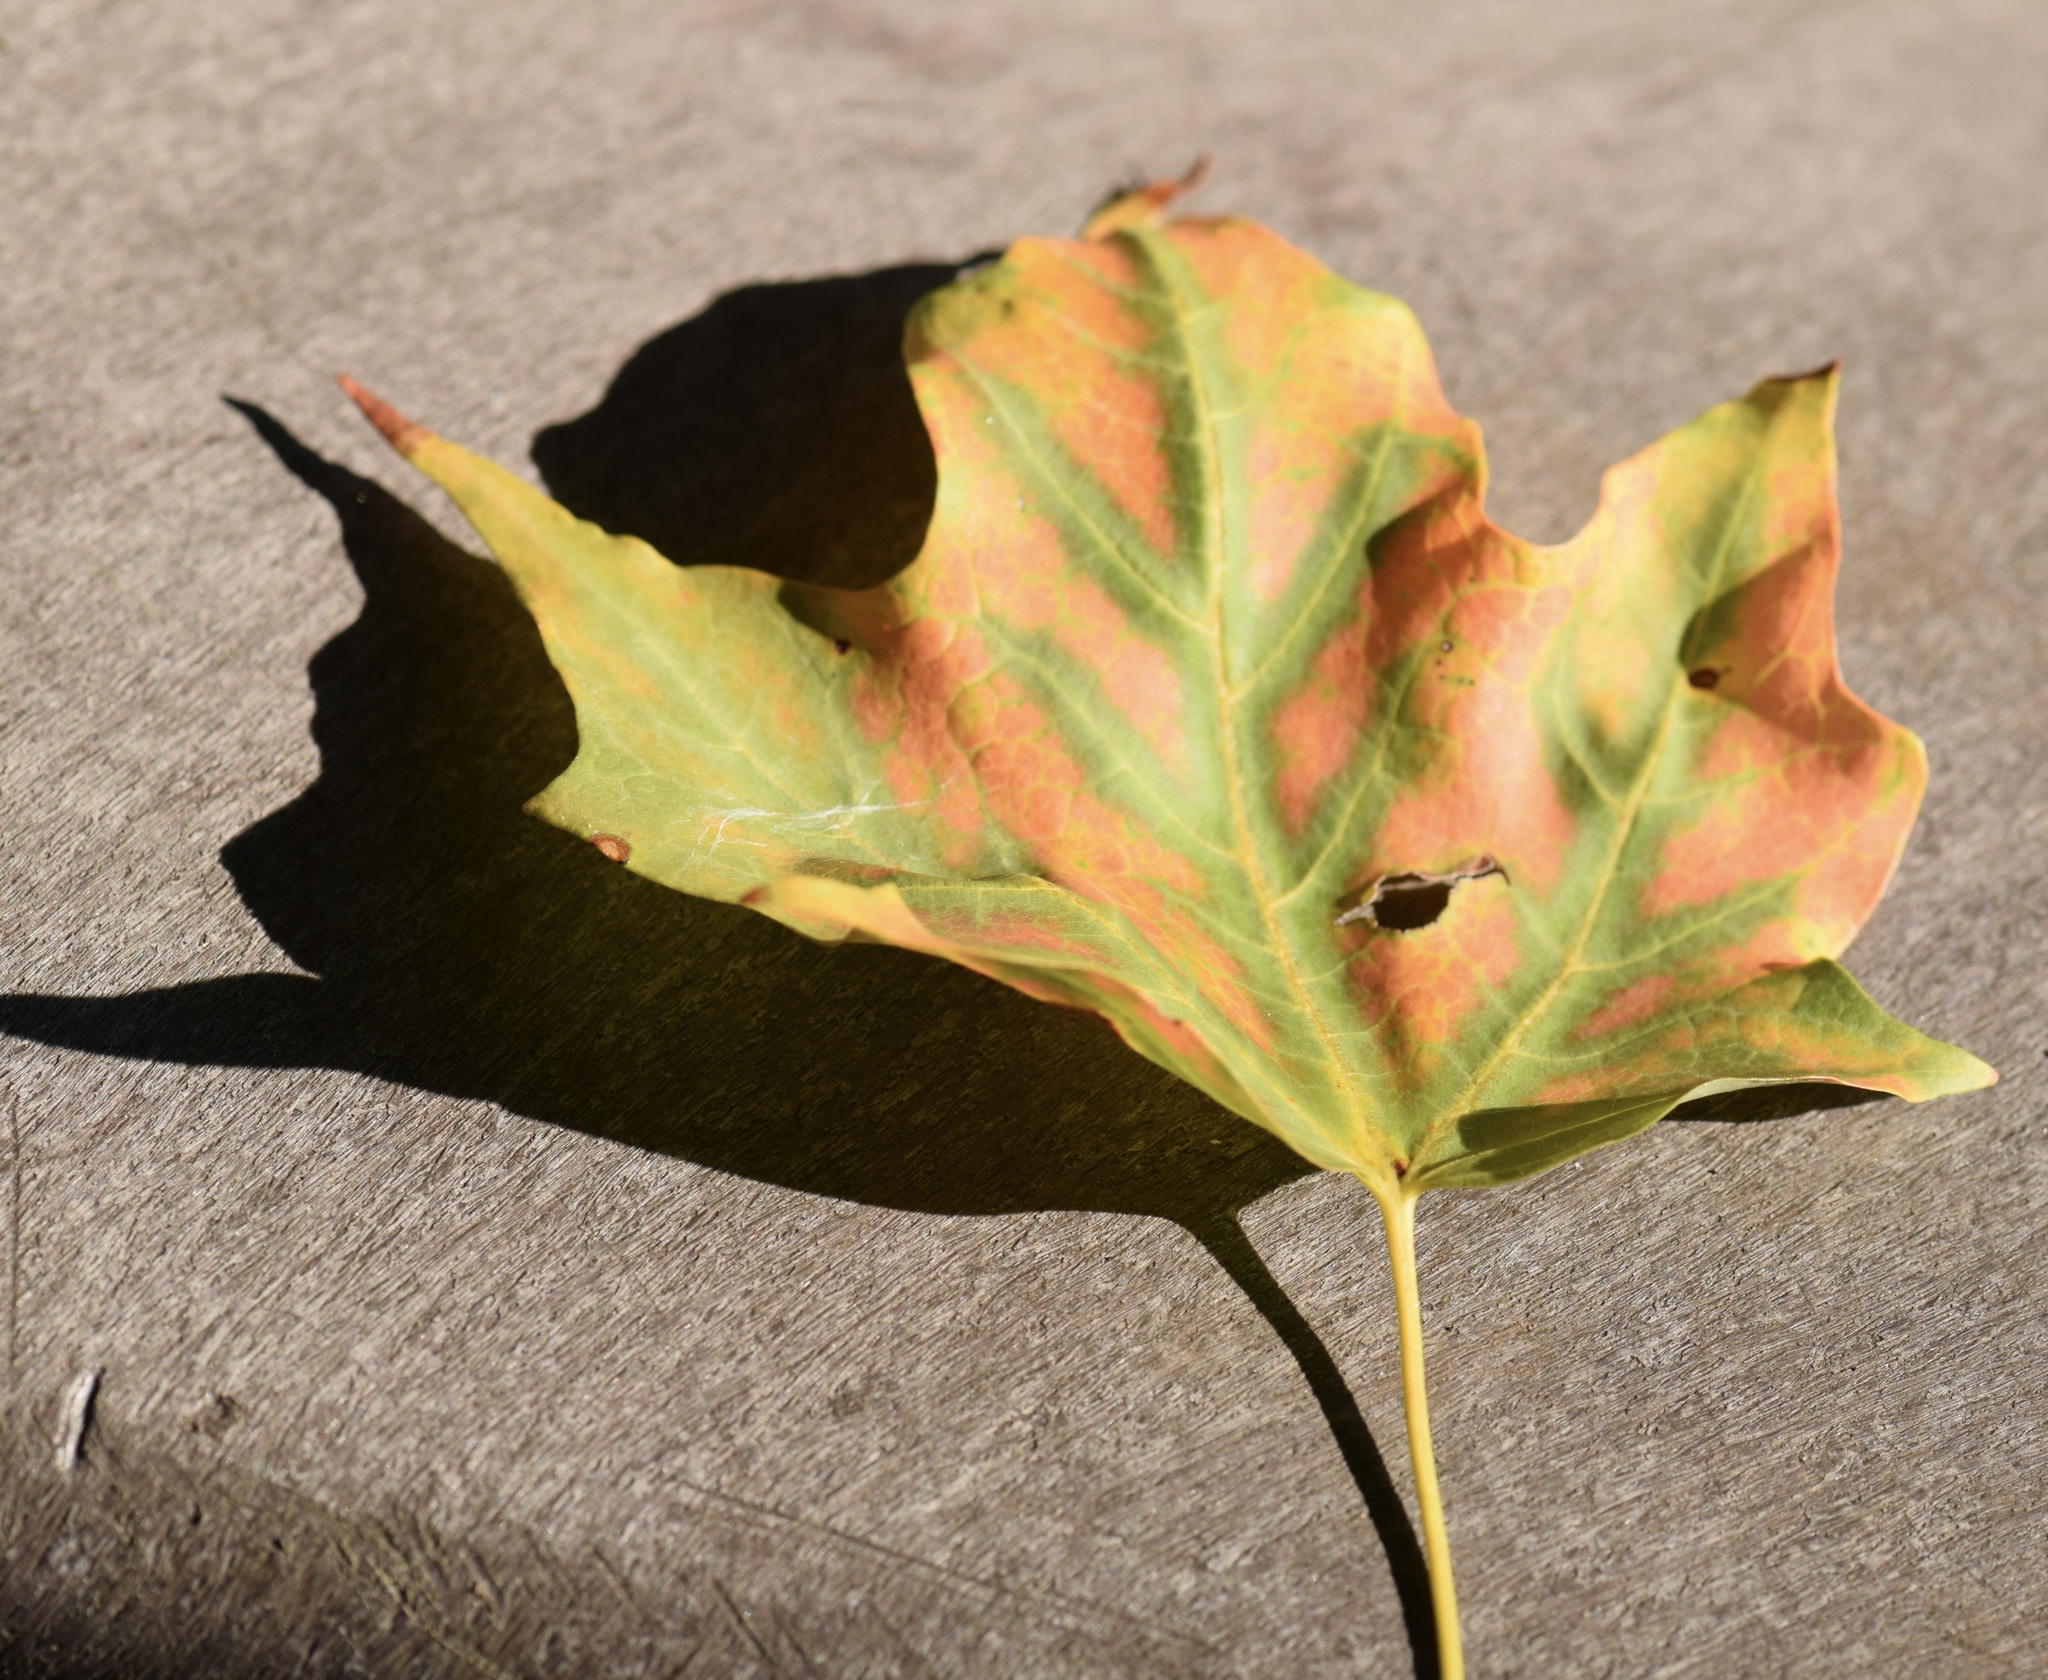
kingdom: Plantae
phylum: Tracheophyta
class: Magnoliopsida
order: Sapindales
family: Sapindaceae
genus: Acer
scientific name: Acer saccharum
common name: Sugar maple
